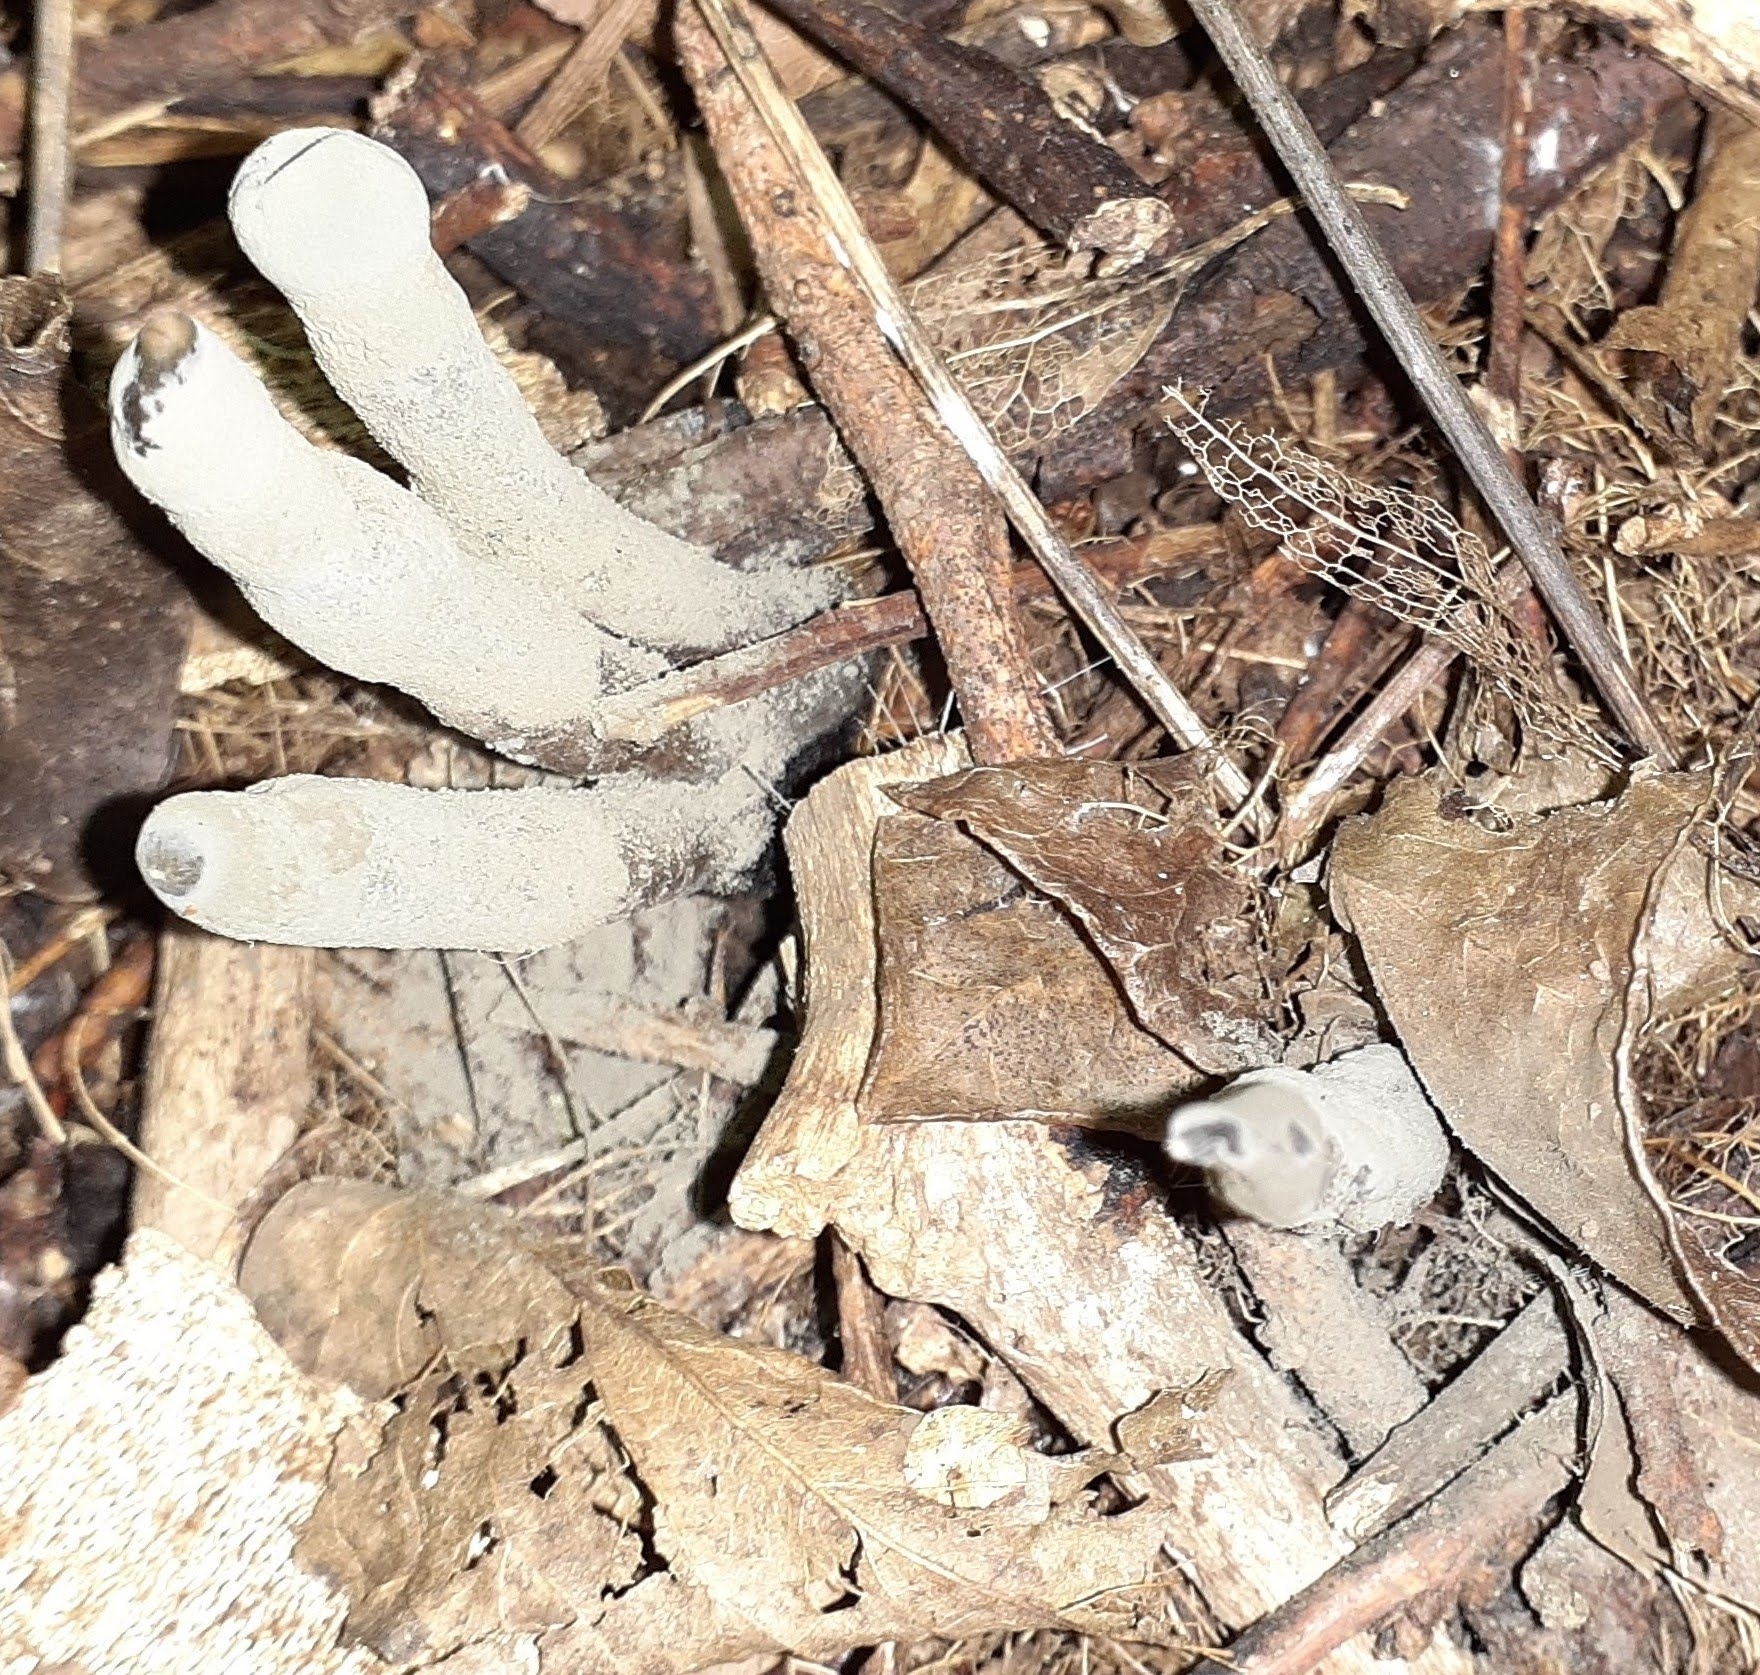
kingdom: Fungi
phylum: Ascomycota
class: Sordariomycetes
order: Xylariales
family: Xylariaceae
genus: Xylaria
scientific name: Xylaria polymorpha
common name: Dead man's fingers
